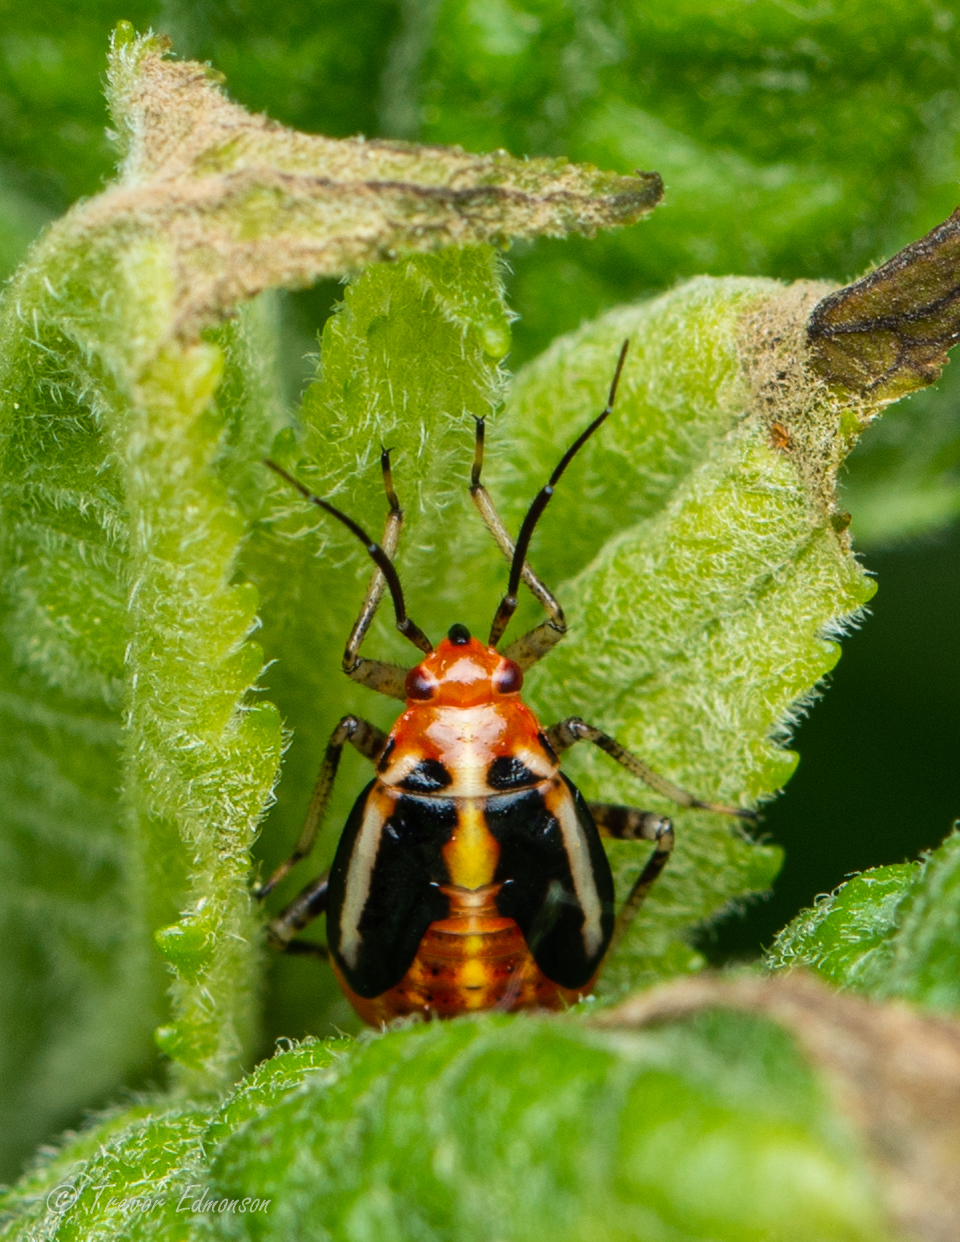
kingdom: Animalia
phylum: Arthropoda
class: Insecta
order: Hemiptera
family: Miridae
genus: Poecilocapsus
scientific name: Poecilocapsus lineatus
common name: Four-lined plant bug
